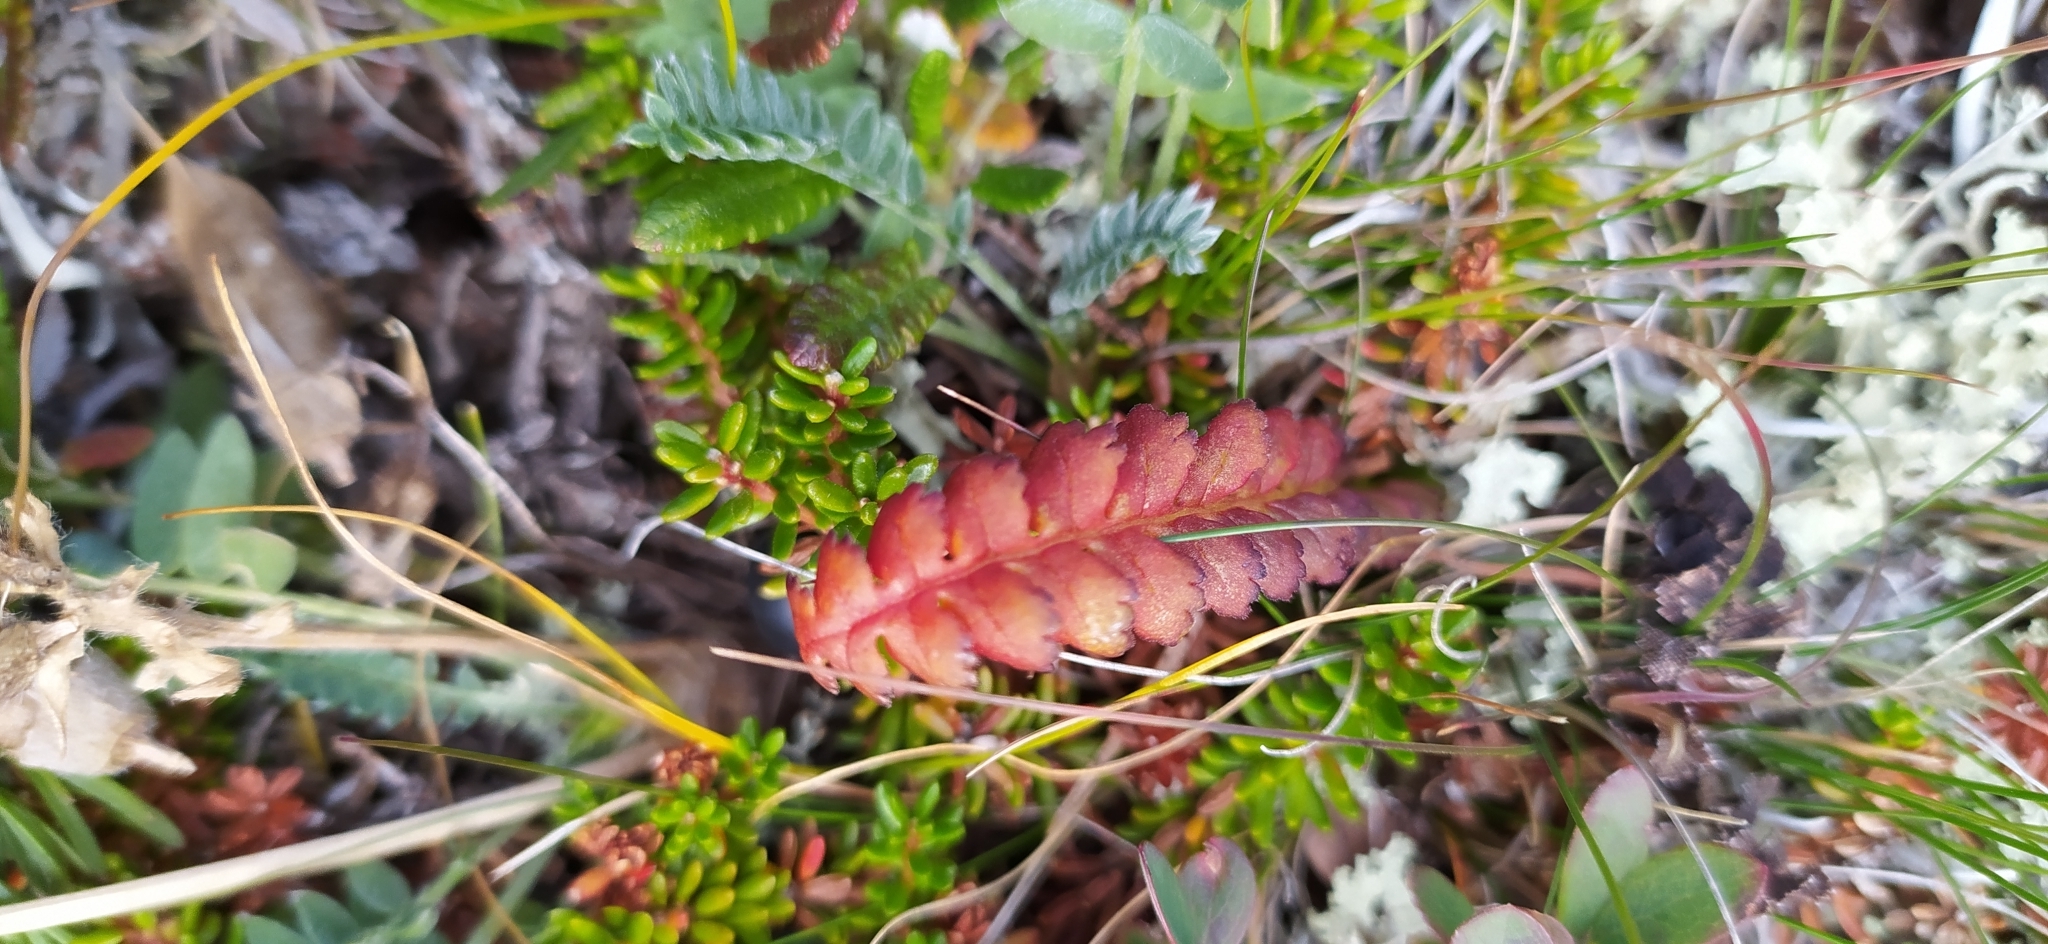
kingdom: Plantae
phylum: Tracheophyta
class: Magnoliopsida
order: Lamiales
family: Orobanchaceae
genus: Pedicularis
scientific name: Pedicularis oederi
